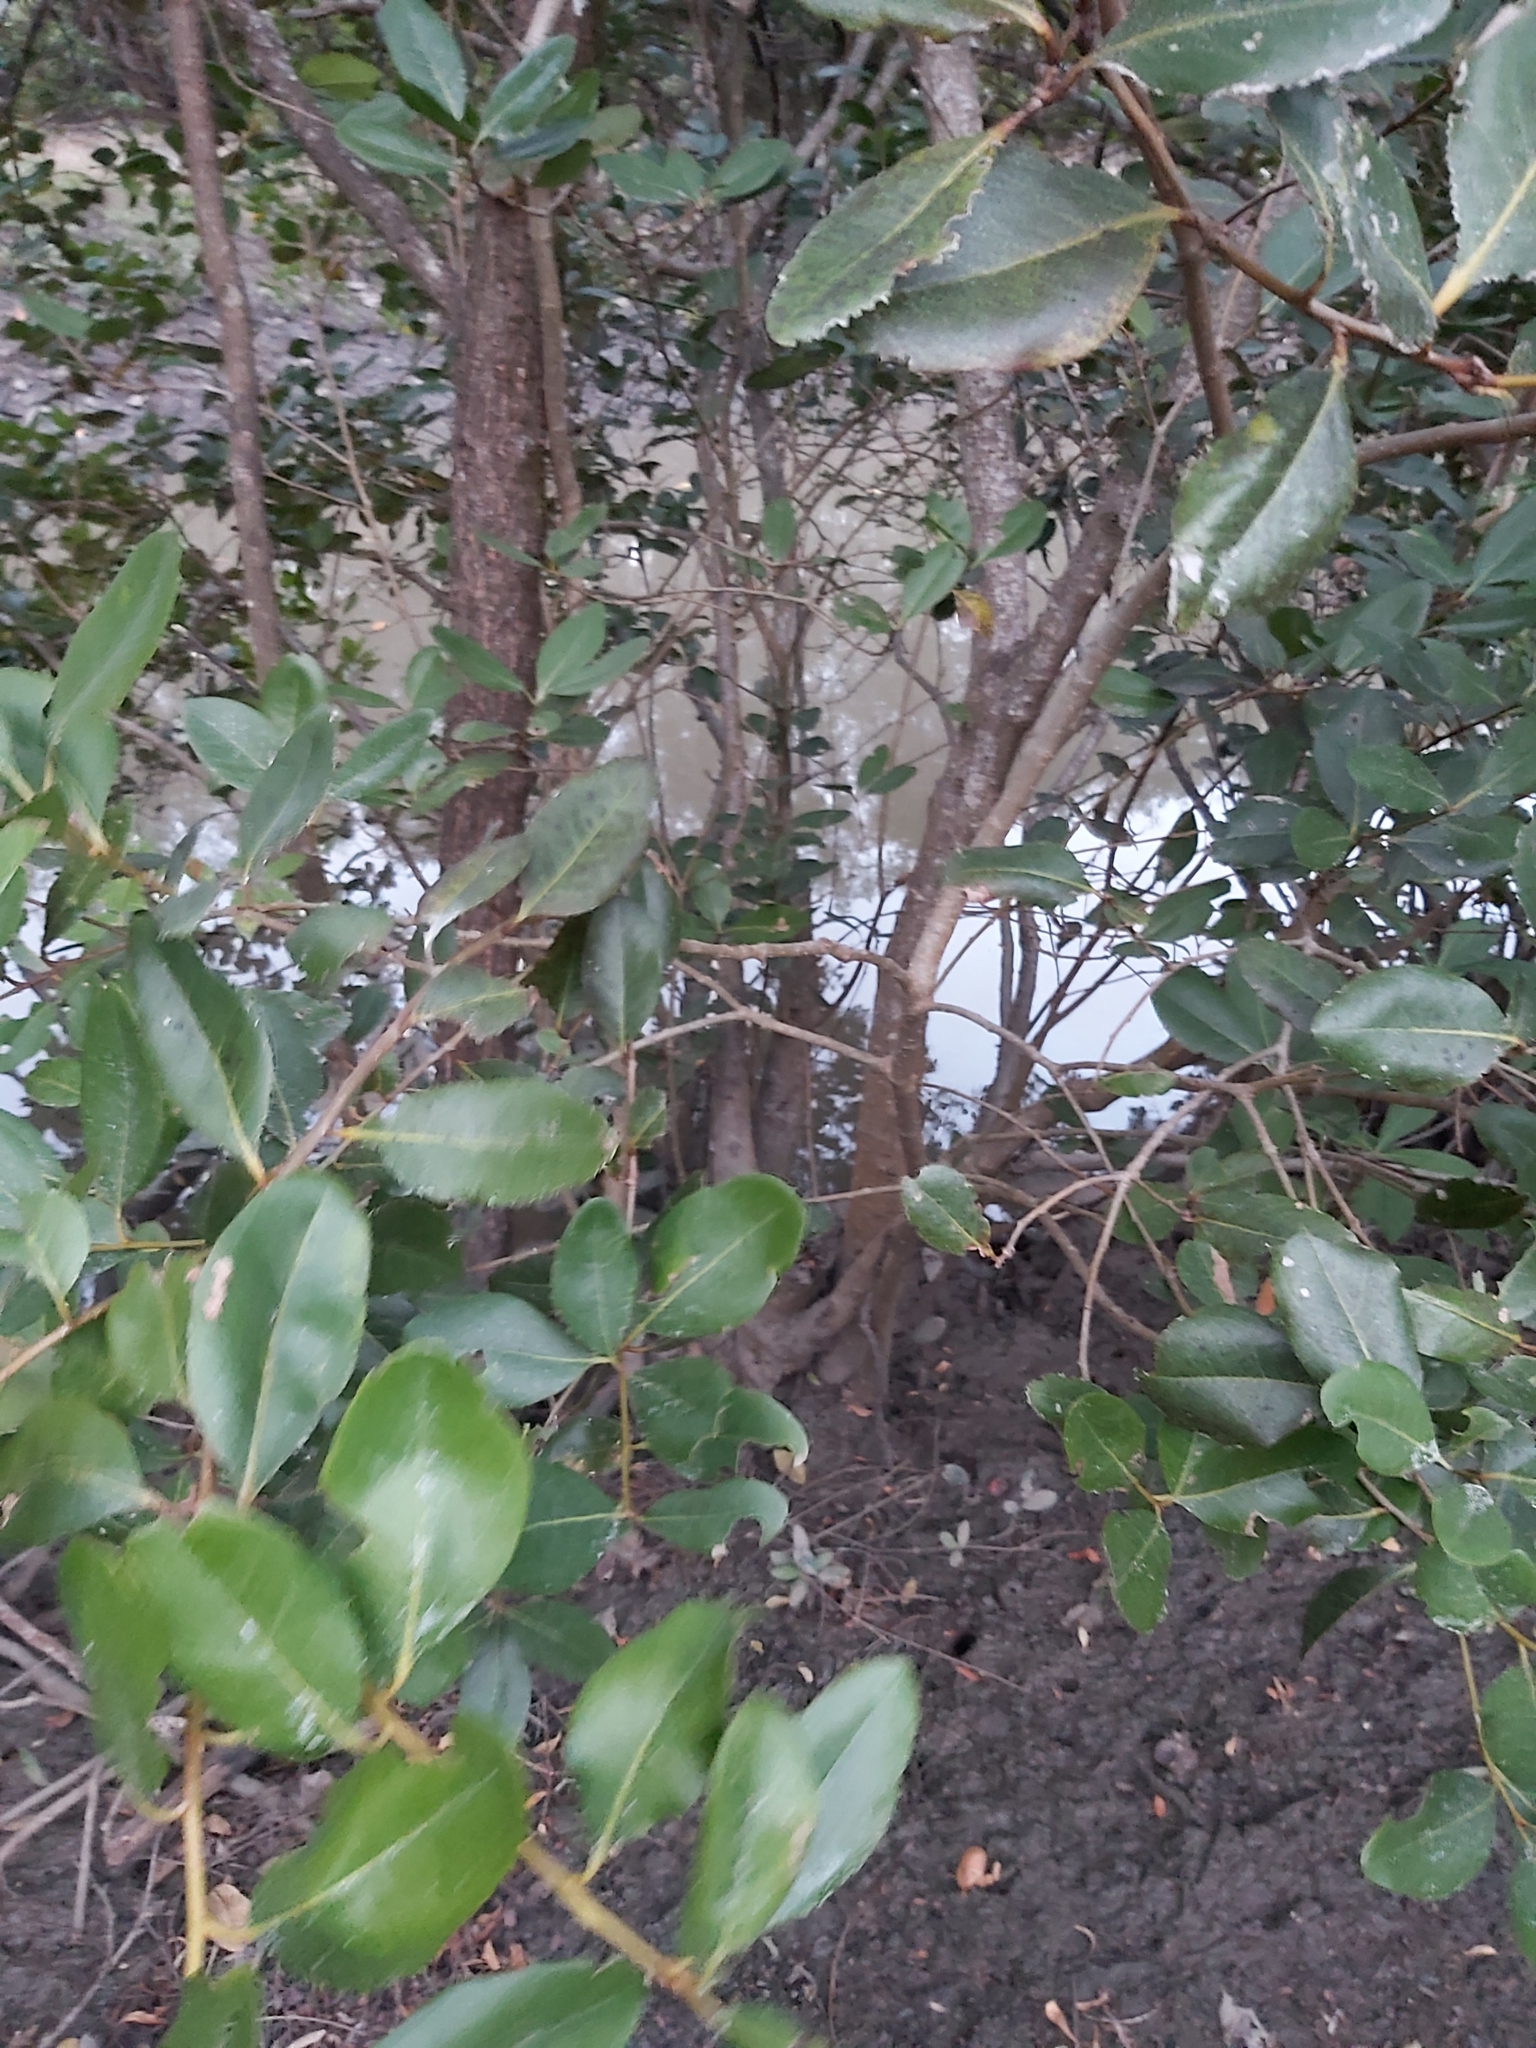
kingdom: Plantae
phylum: Tracheophyta
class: Magnoliopsida
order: Ericales
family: Primulaceae
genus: Aegiceras
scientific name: Aegiceras corniculatum
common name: River mangrove
